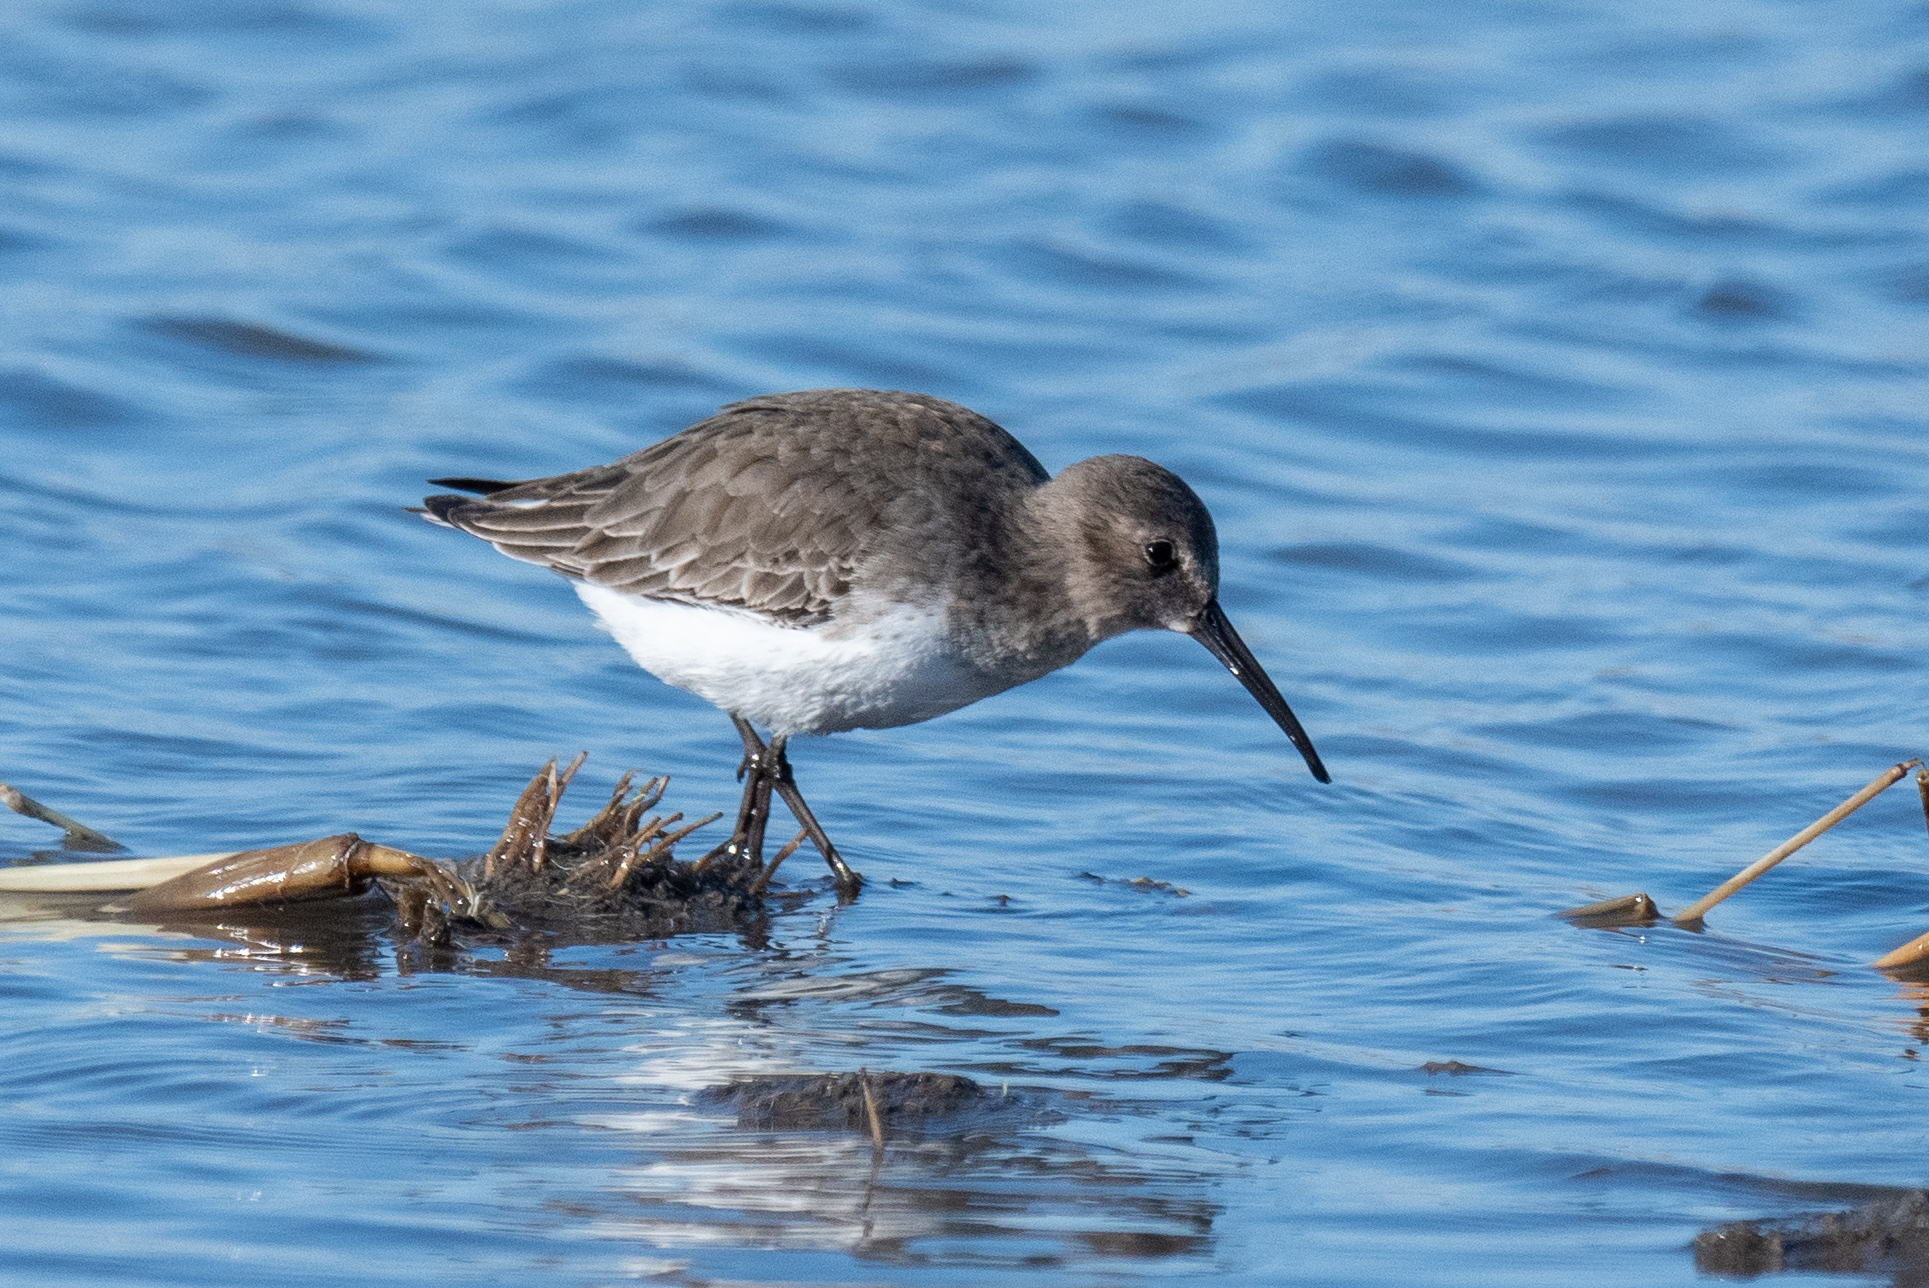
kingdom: Animalia
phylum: Chordata
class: Aves
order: Charadriiformes
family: Scolopacidae
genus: Calidris
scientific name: Calidris alpina
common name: Dunlin
